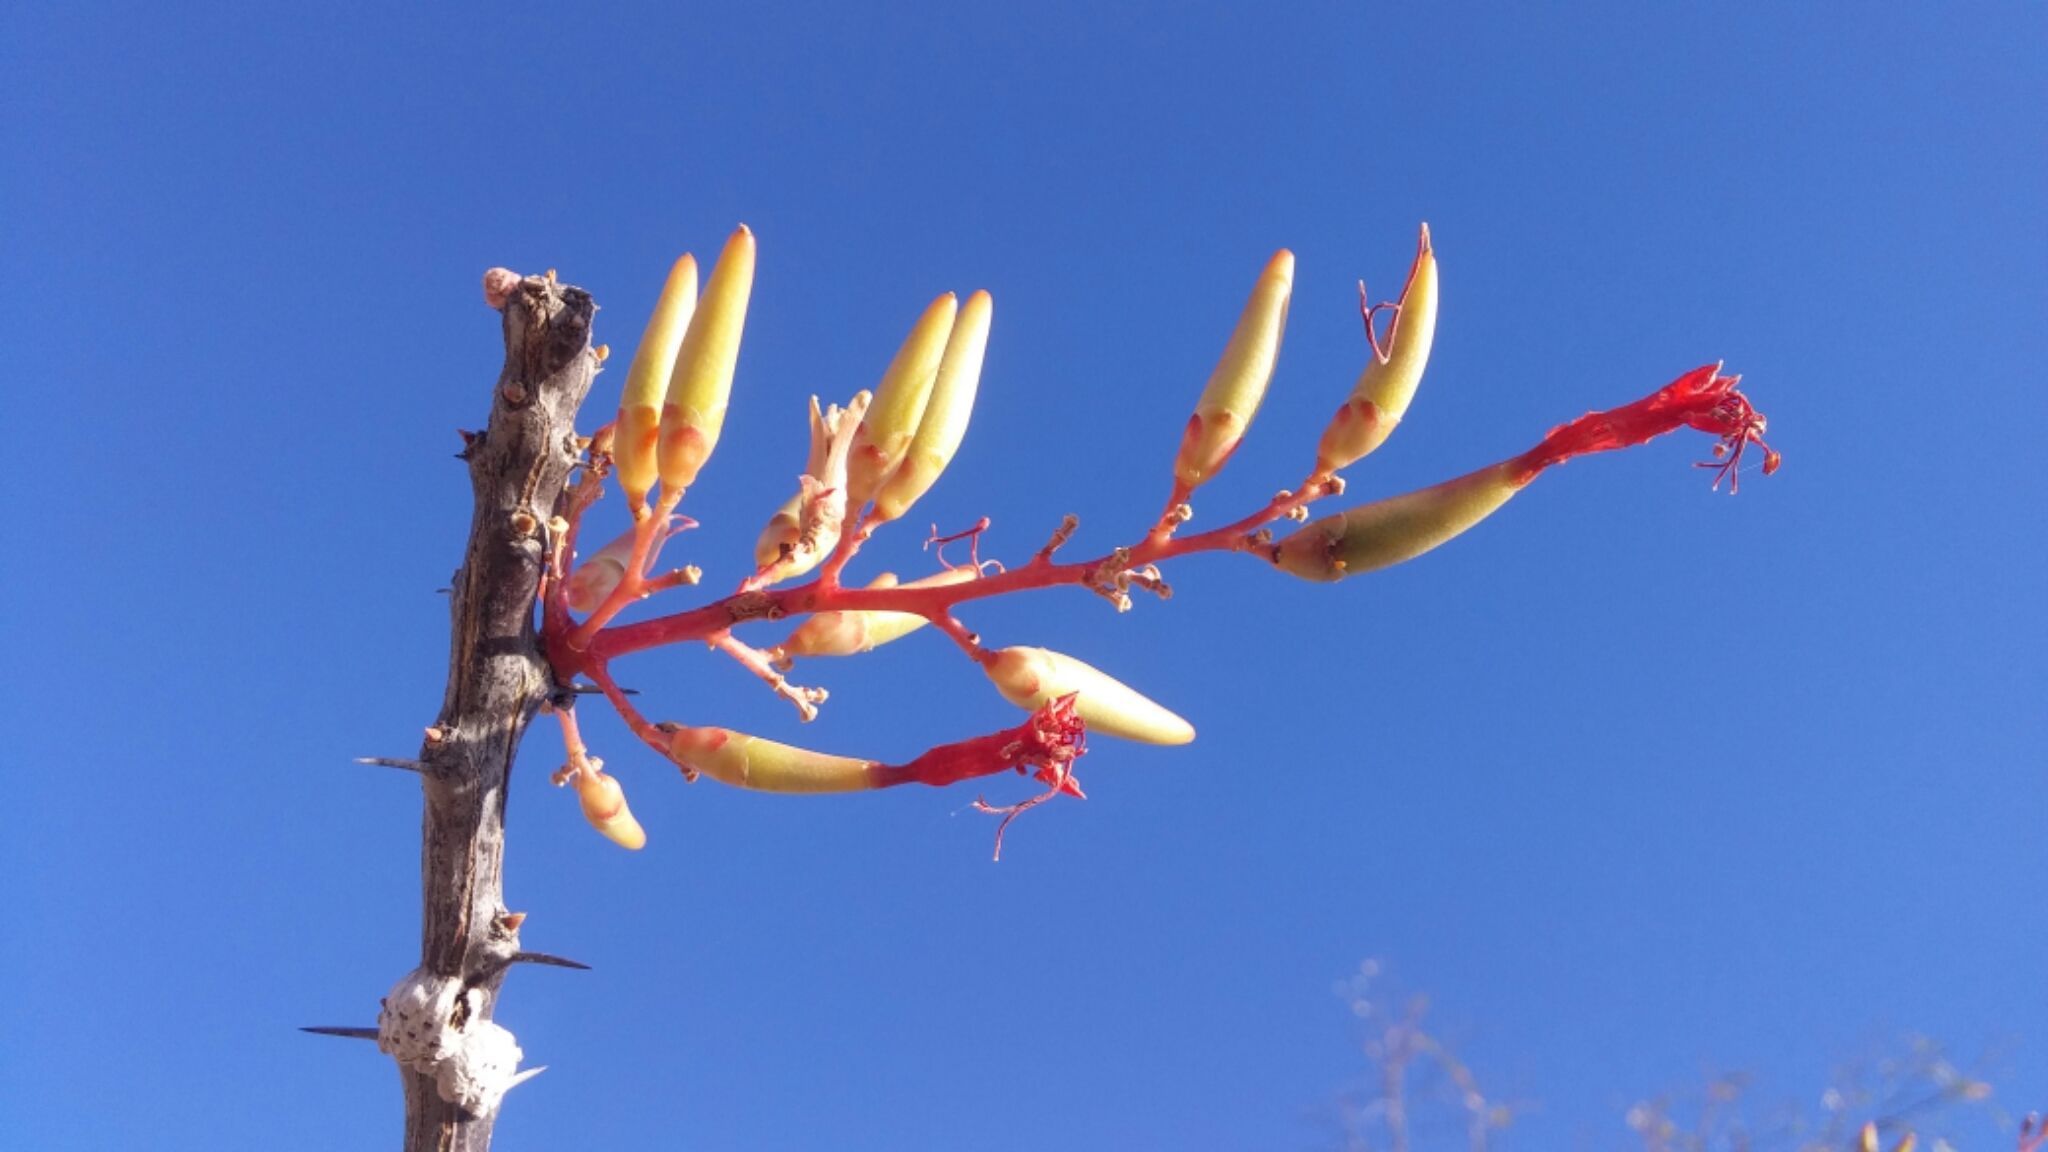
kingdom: Plantae
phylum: Tracheophyta
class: Magnoliopsida
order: Ericales
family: Fouquieriaceae
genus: Fouquieria
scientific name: Fouquieria diguetii
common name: Adam's tree
